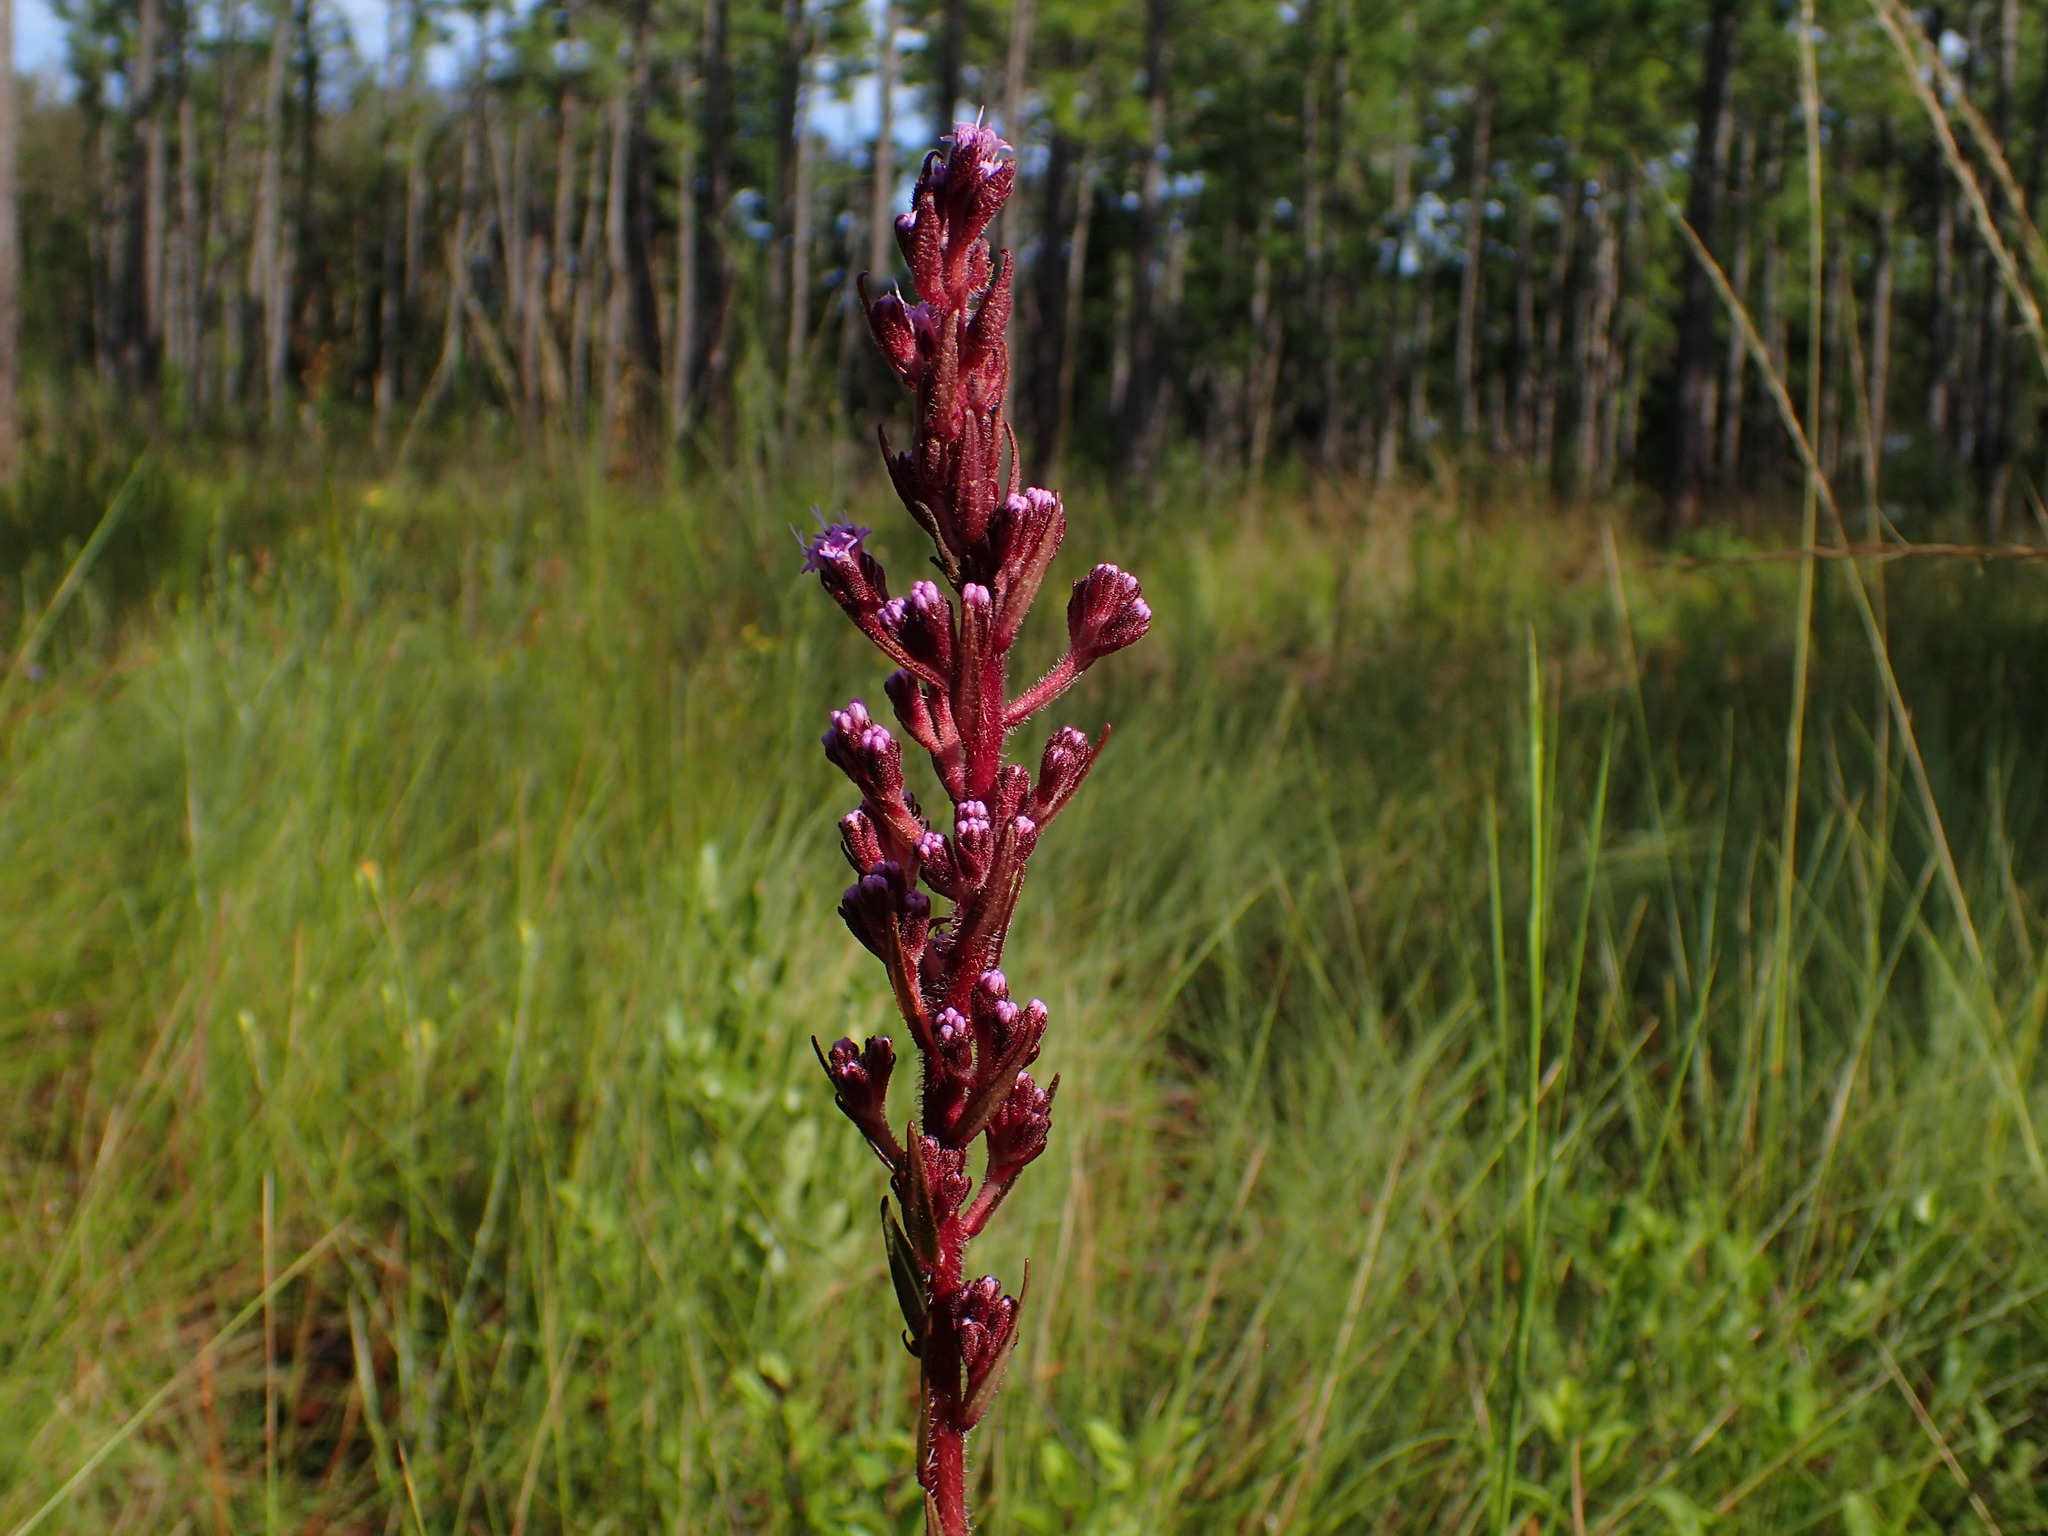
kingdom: Plantae
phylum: Tracheophyta
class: Magnoliopsida
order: Asterales
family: Asteraceae
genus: Carphephorus
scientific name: Carphephorus paniculatus
